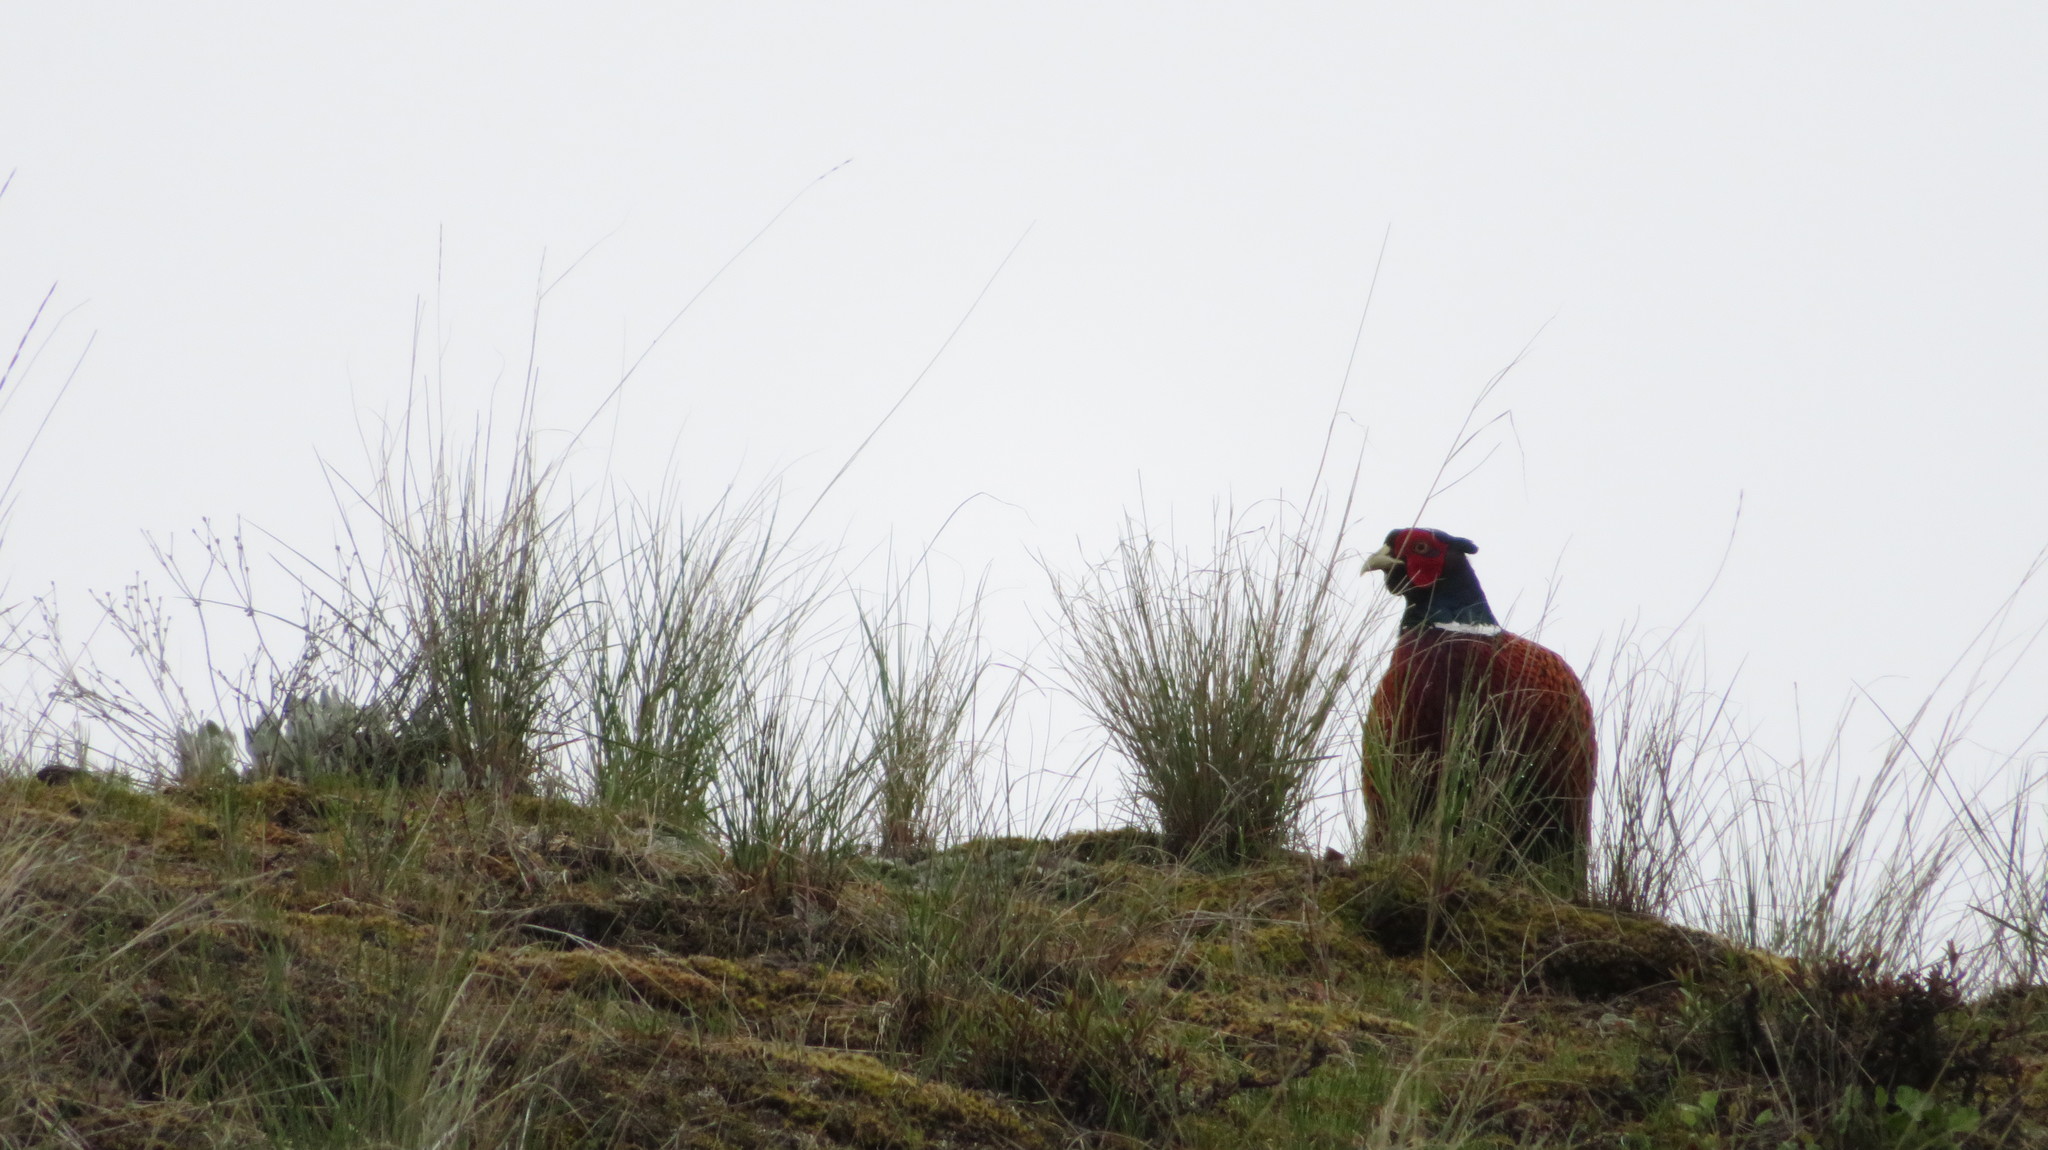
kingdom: Animalia
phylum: Chordata
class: Aves
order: Galliformes
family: Phasianidae
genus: Phasianus
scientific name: Phasianus colchicus
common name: Common pheasant
